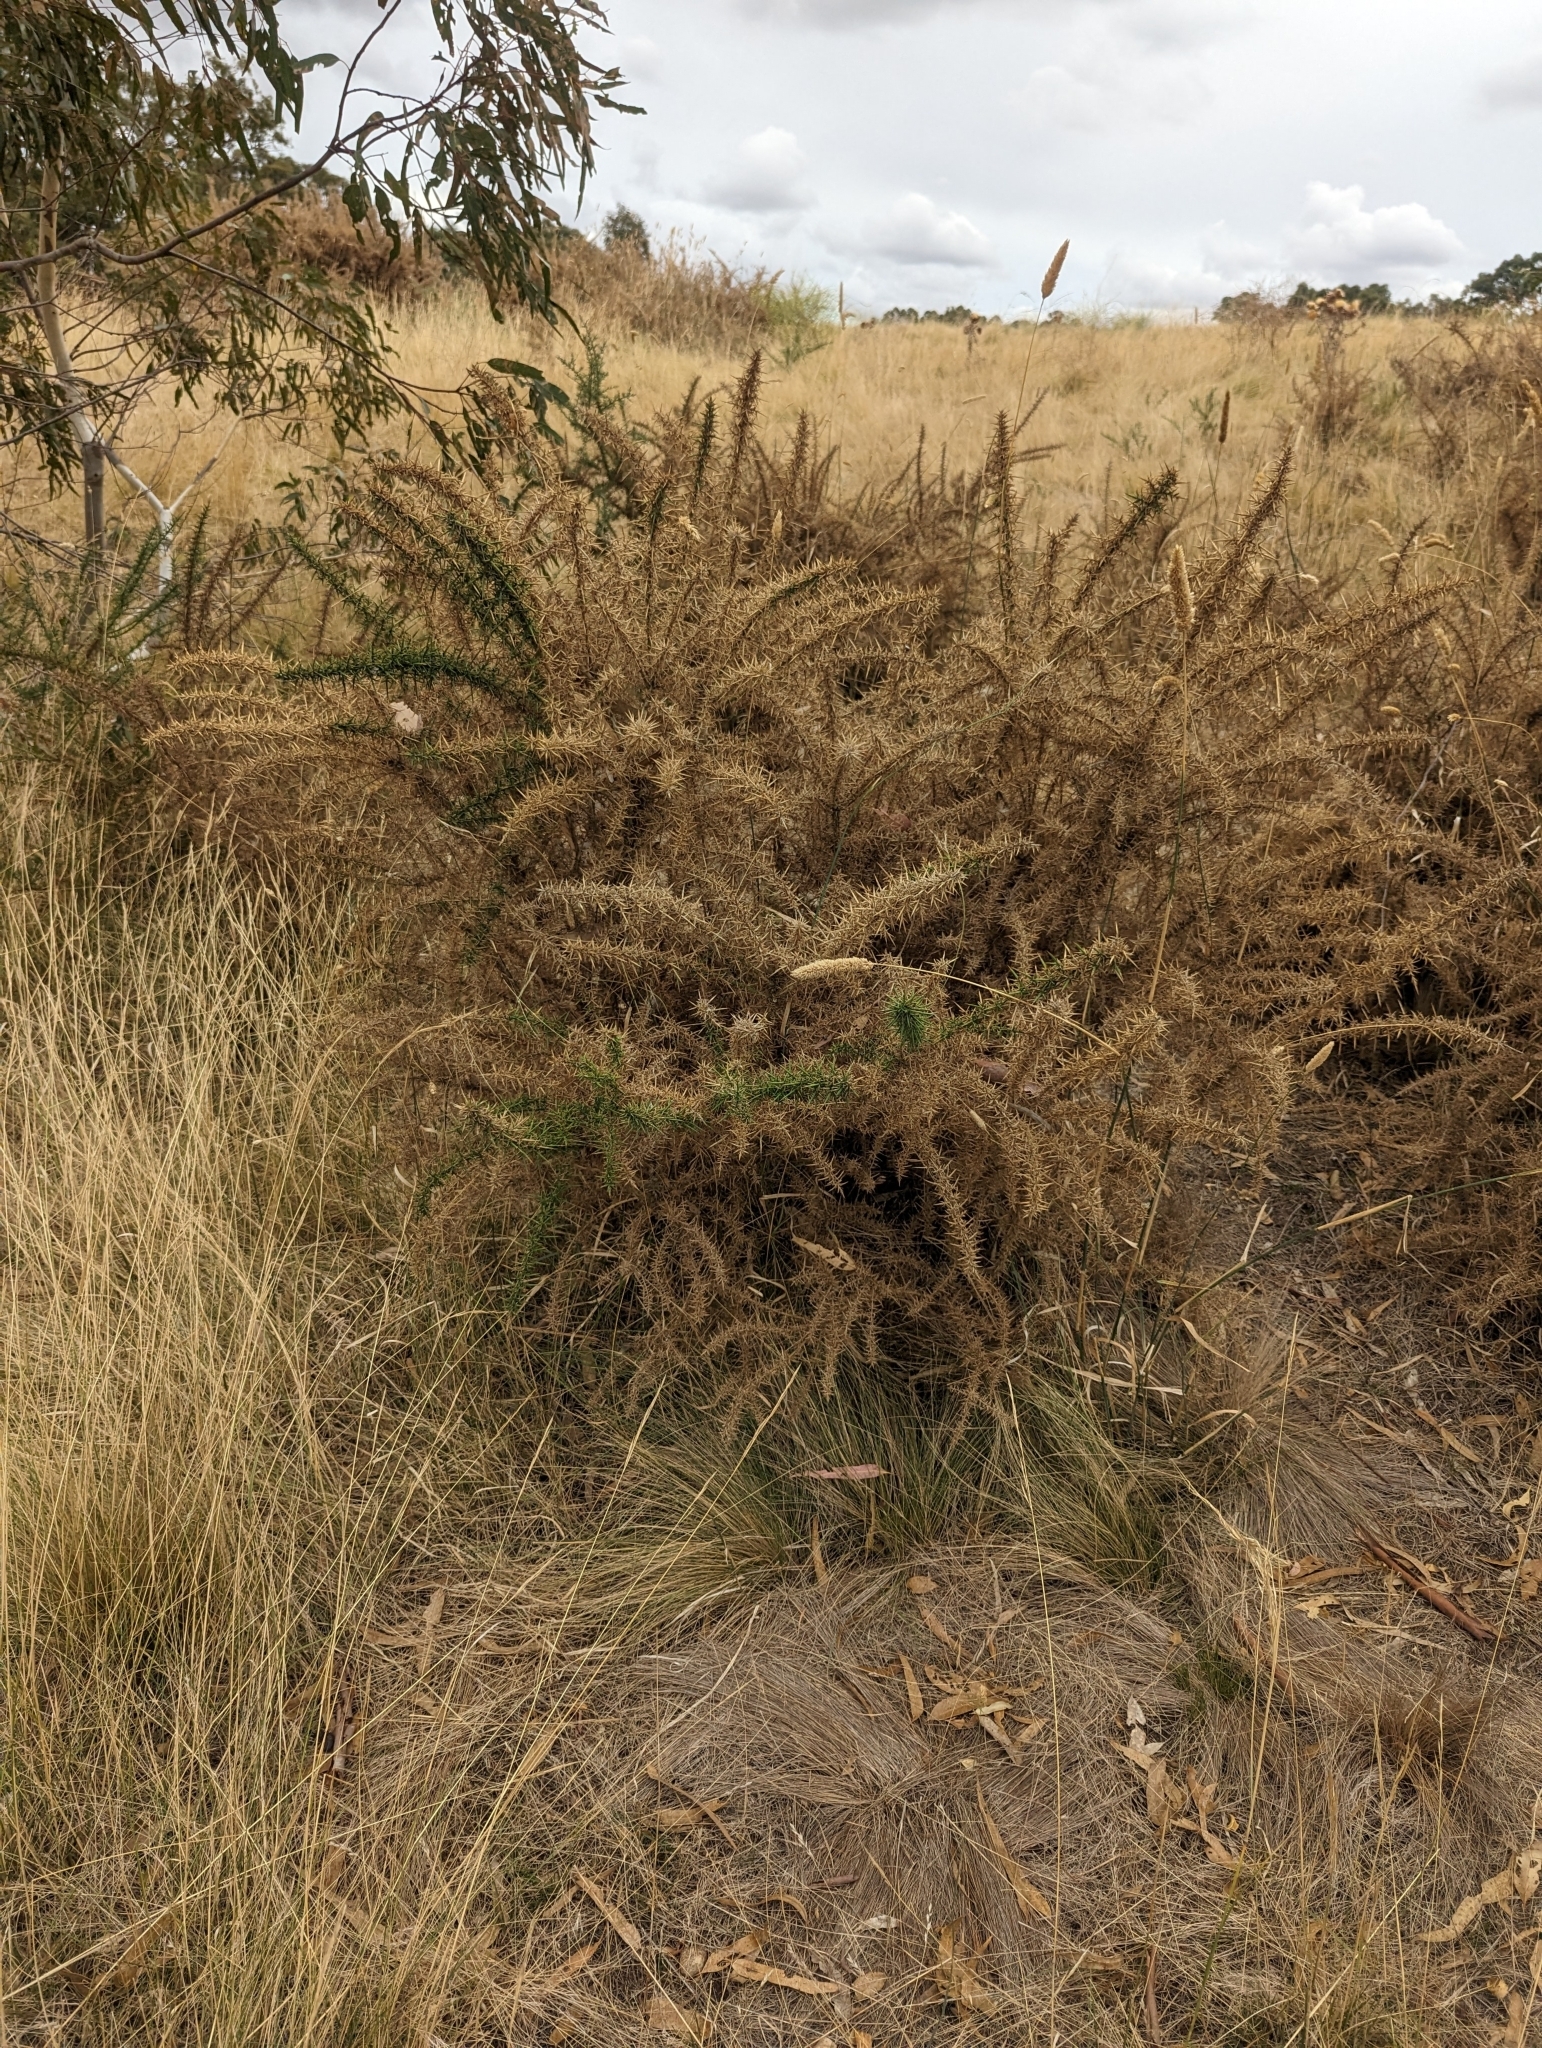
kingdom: Plantae
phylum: Tracheophyta
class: Magnoliopsida
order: Fabales
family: Fabaceae
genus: Ulex
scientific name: Ulex europaeus
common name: Common gorse
